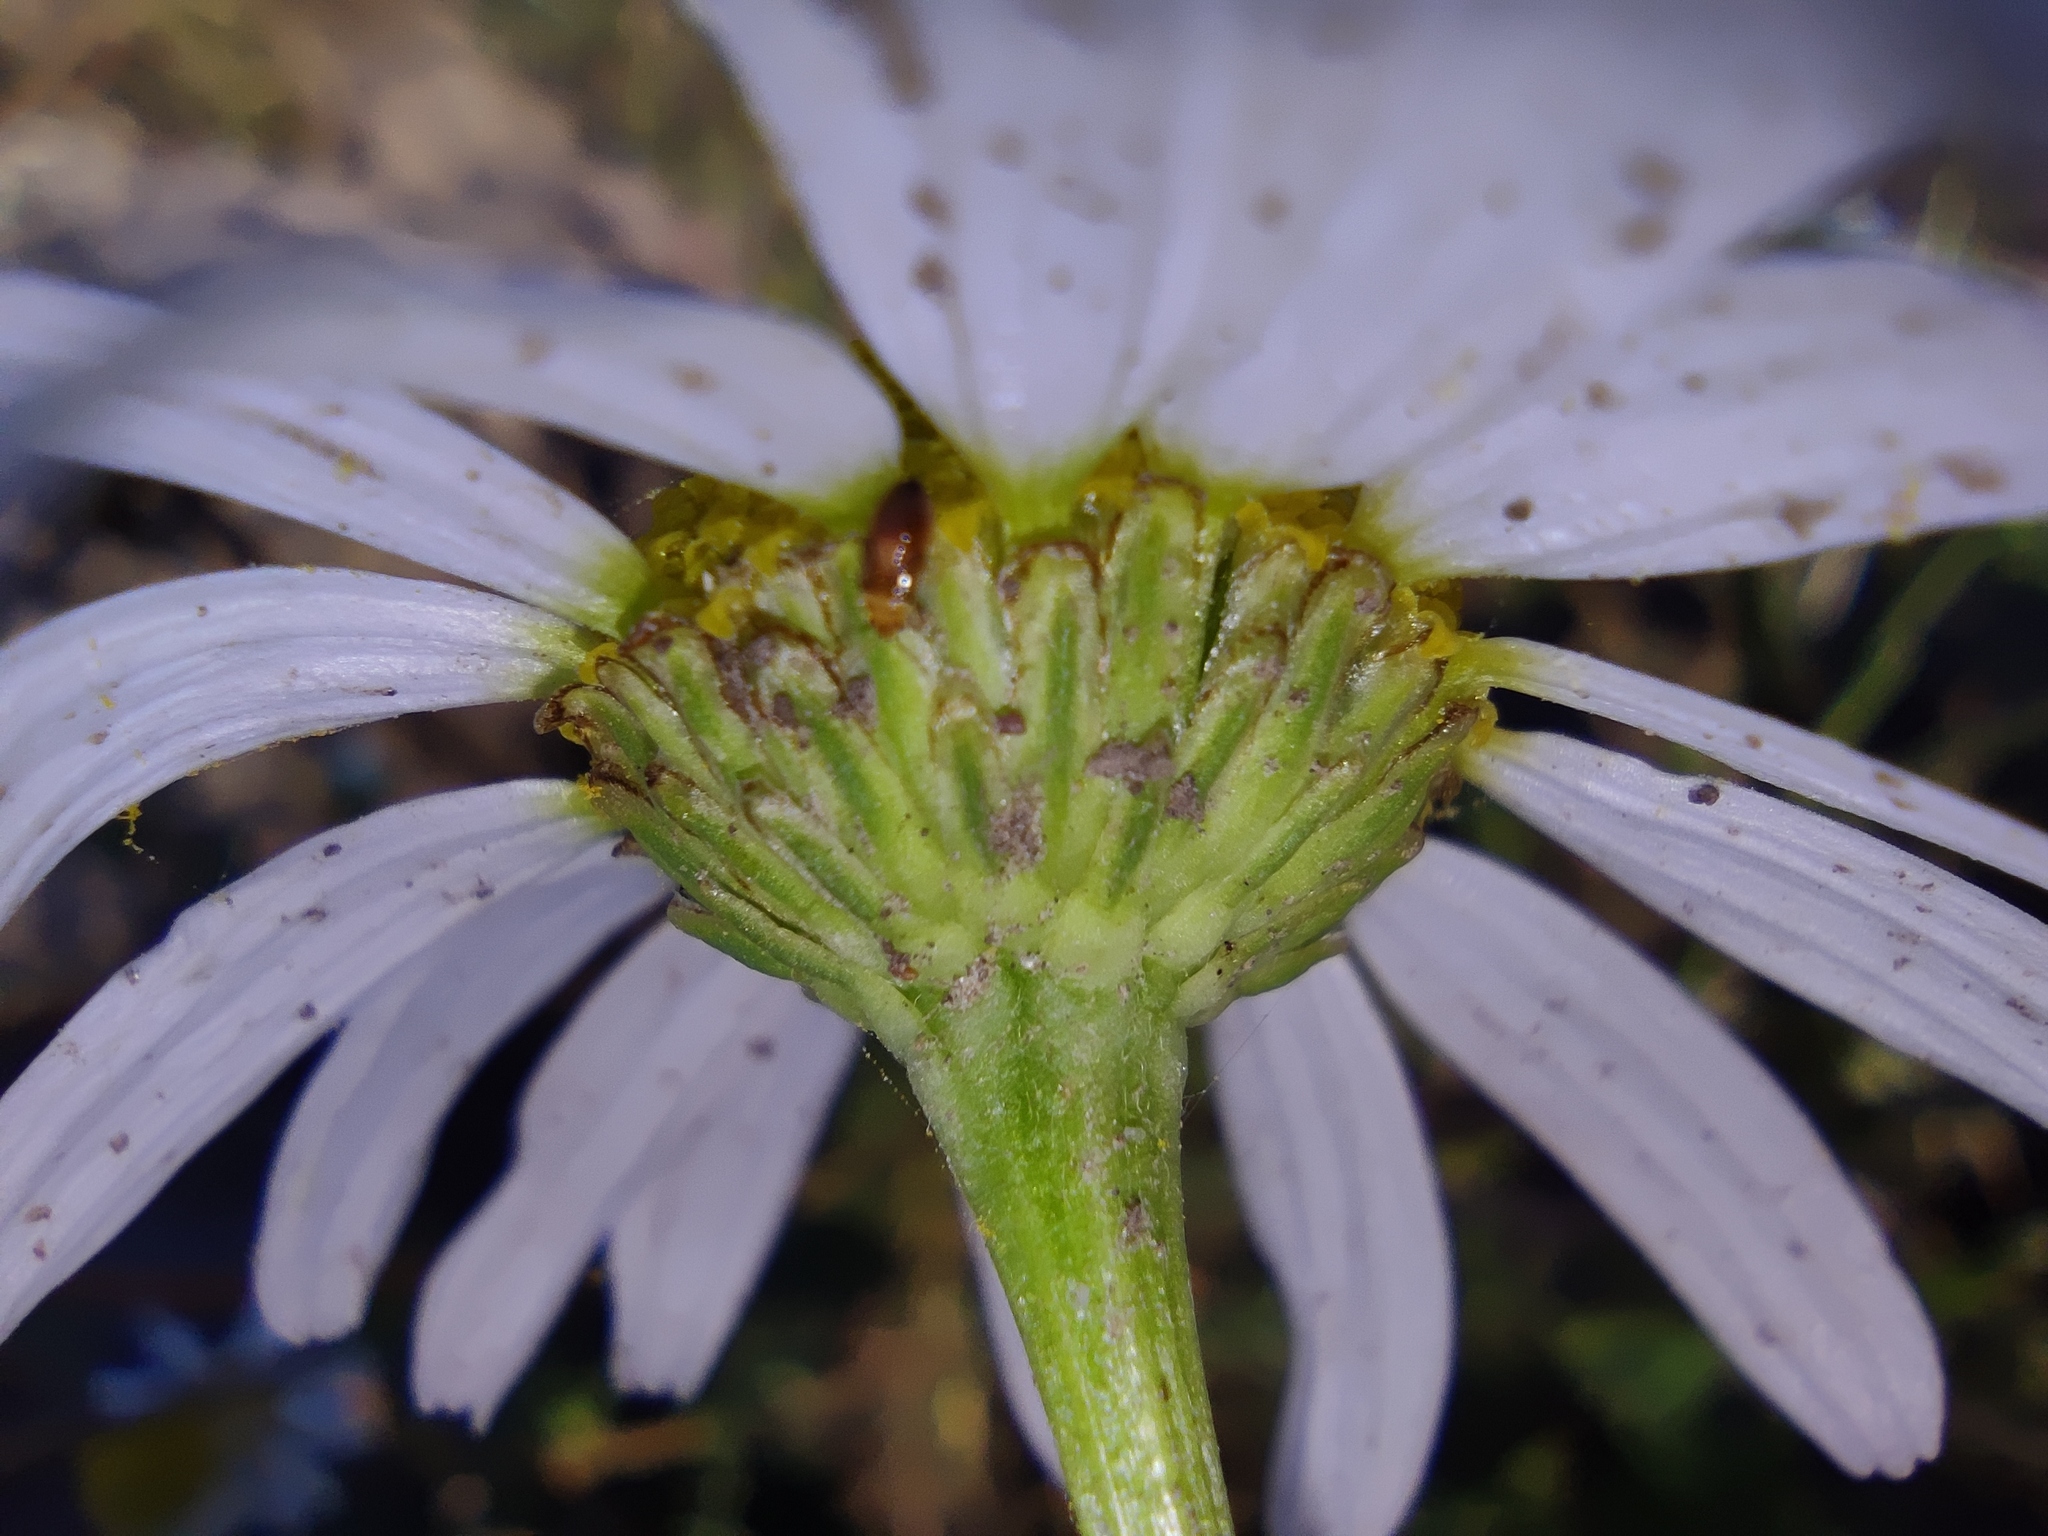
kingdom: Plantae
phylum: Tracheophyta
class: Magnoliopsida
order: Asterales
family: Asteraceae
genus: Tripleurospermum
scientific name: Tripleurospermum inodorum
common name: Scentless mayweed
